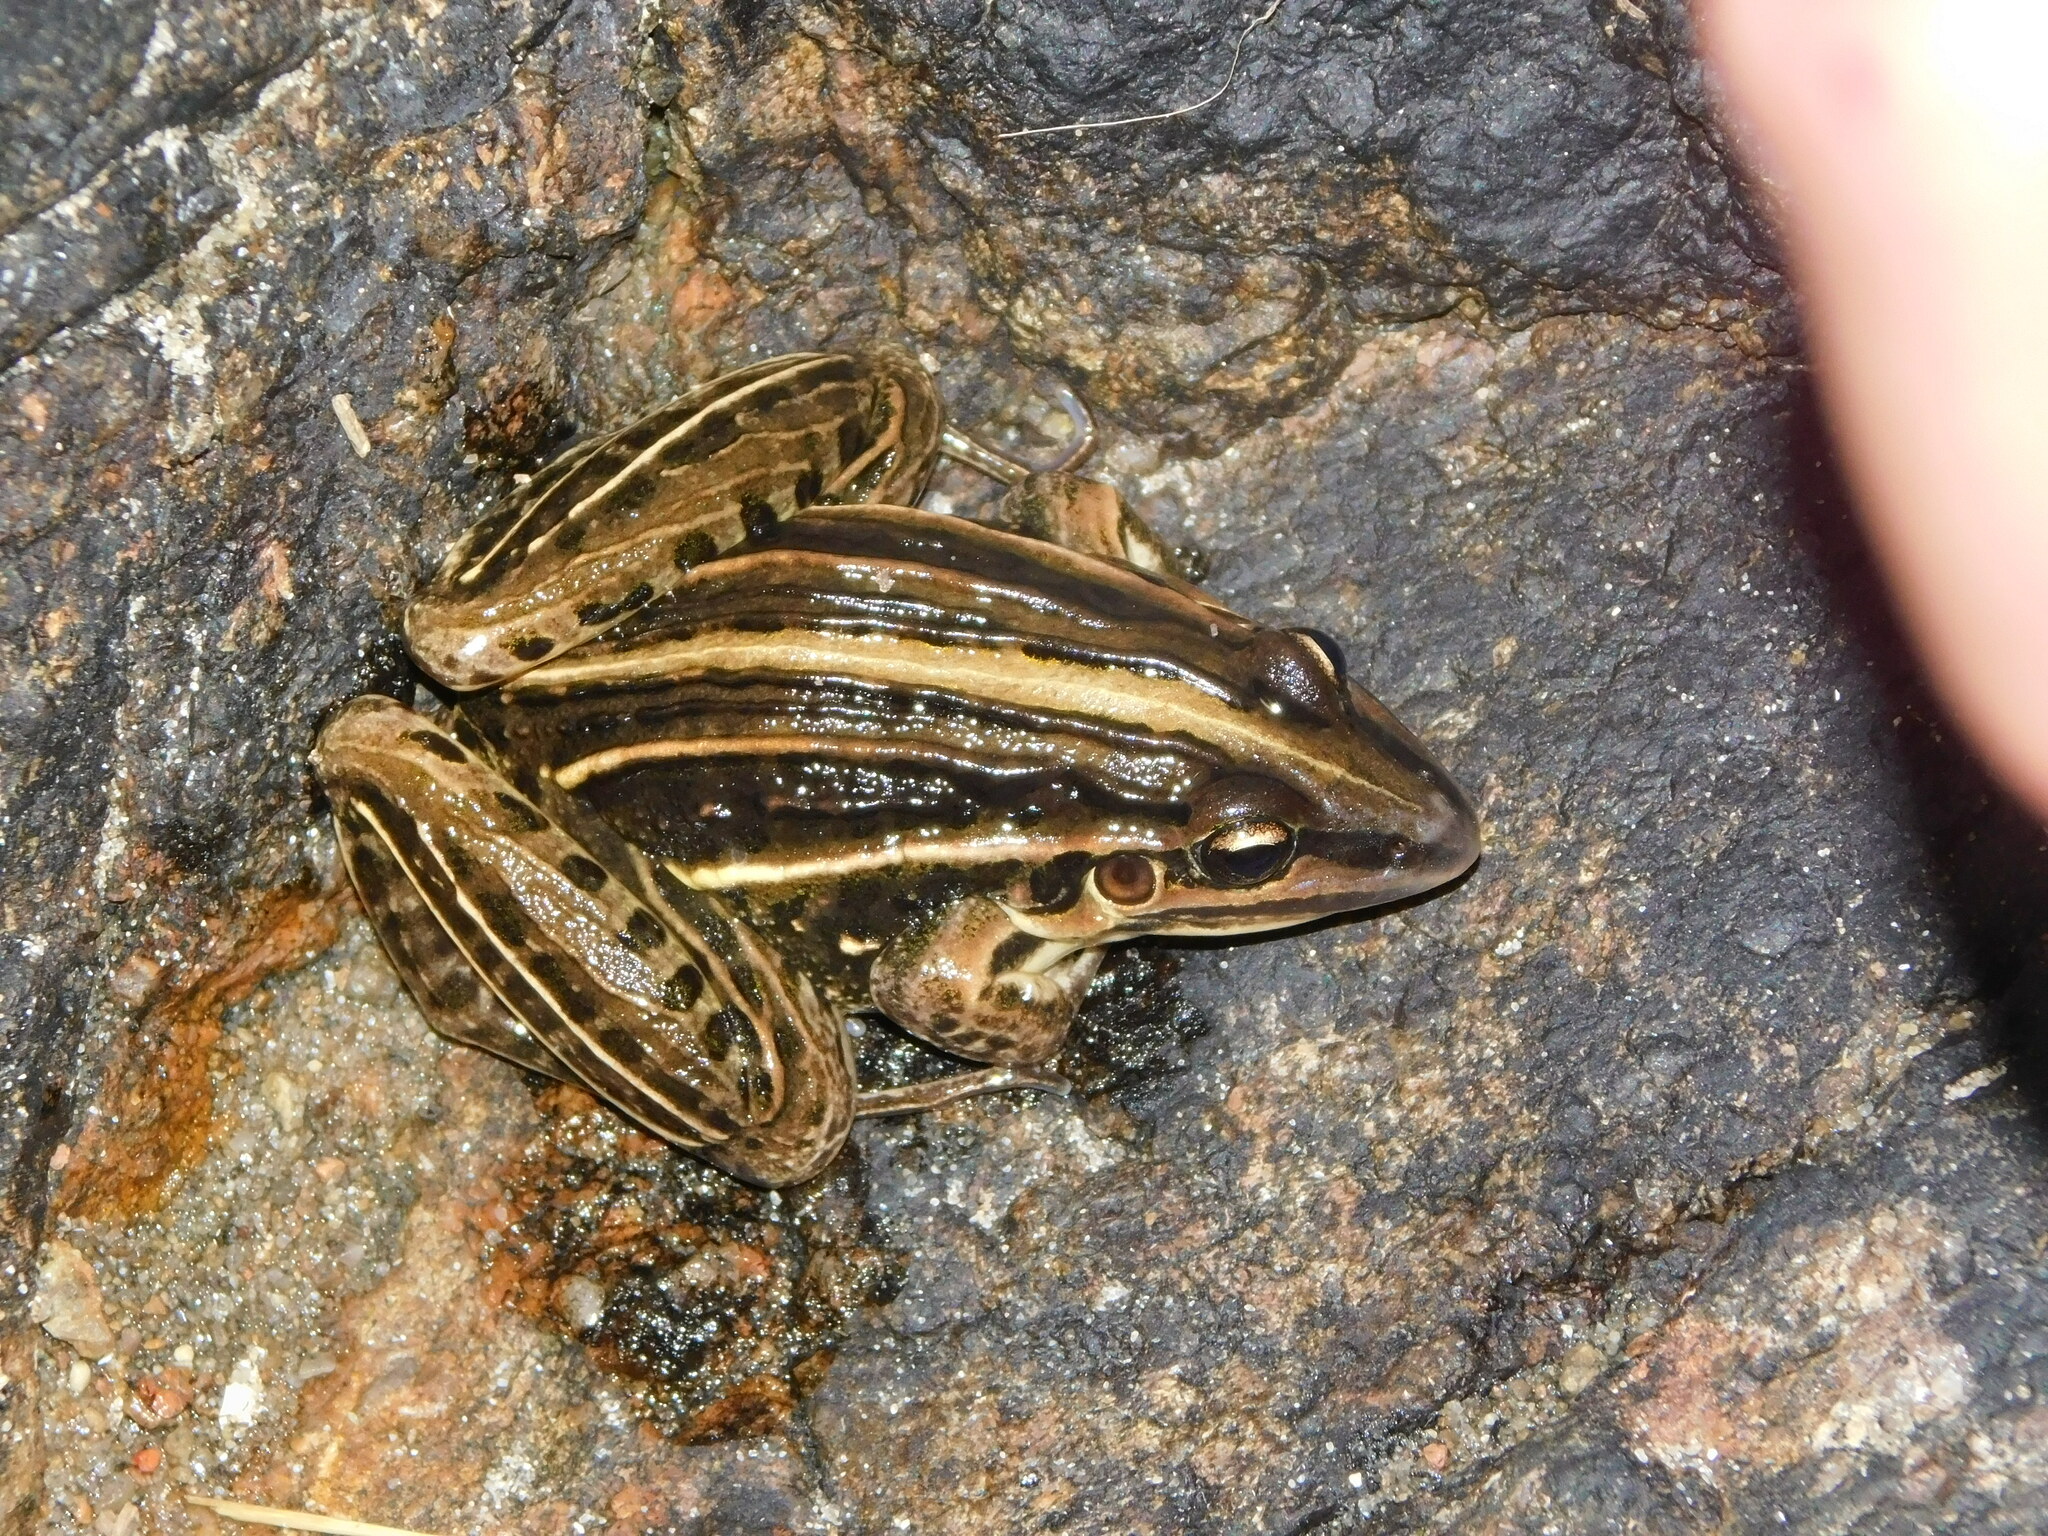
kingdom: Animalia
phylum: Chordata
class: Amphibia
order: Anura
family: Leptodactylidae
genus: Leptodactylus
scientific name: Leptodactylus gracilis
